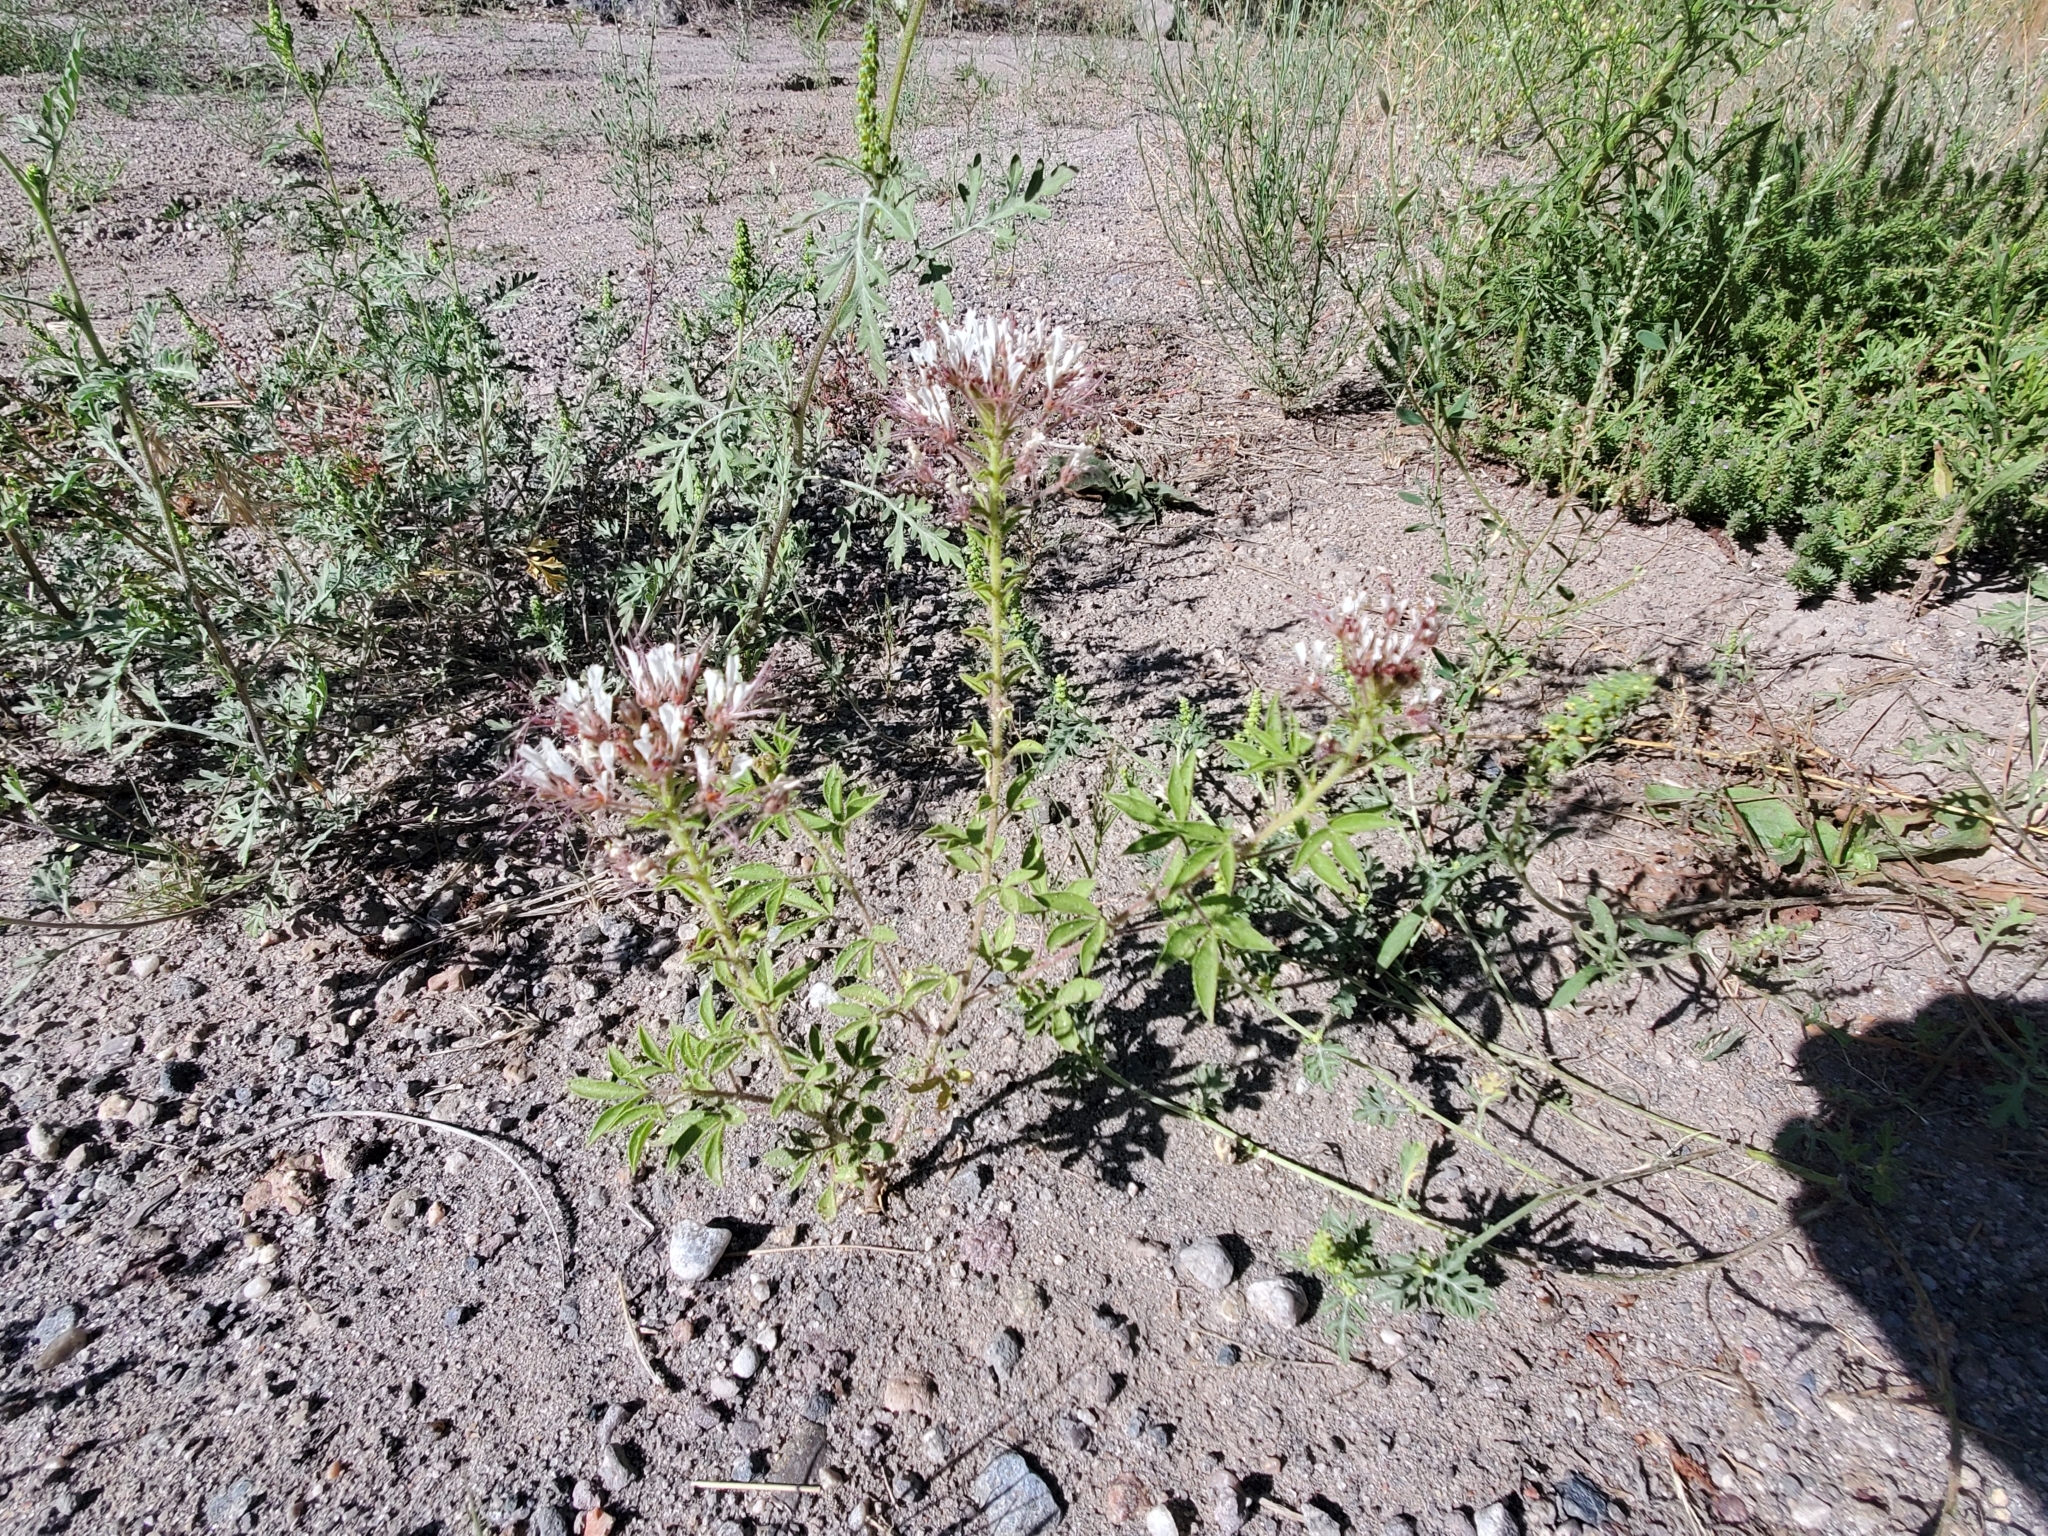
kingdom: Plantae
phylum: Tracheophyta
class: Magnoliopsida
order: Brassicales
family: Cleomaceae
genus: Polanisia
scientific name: Polanisia dodecandra
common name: Clammyweed
